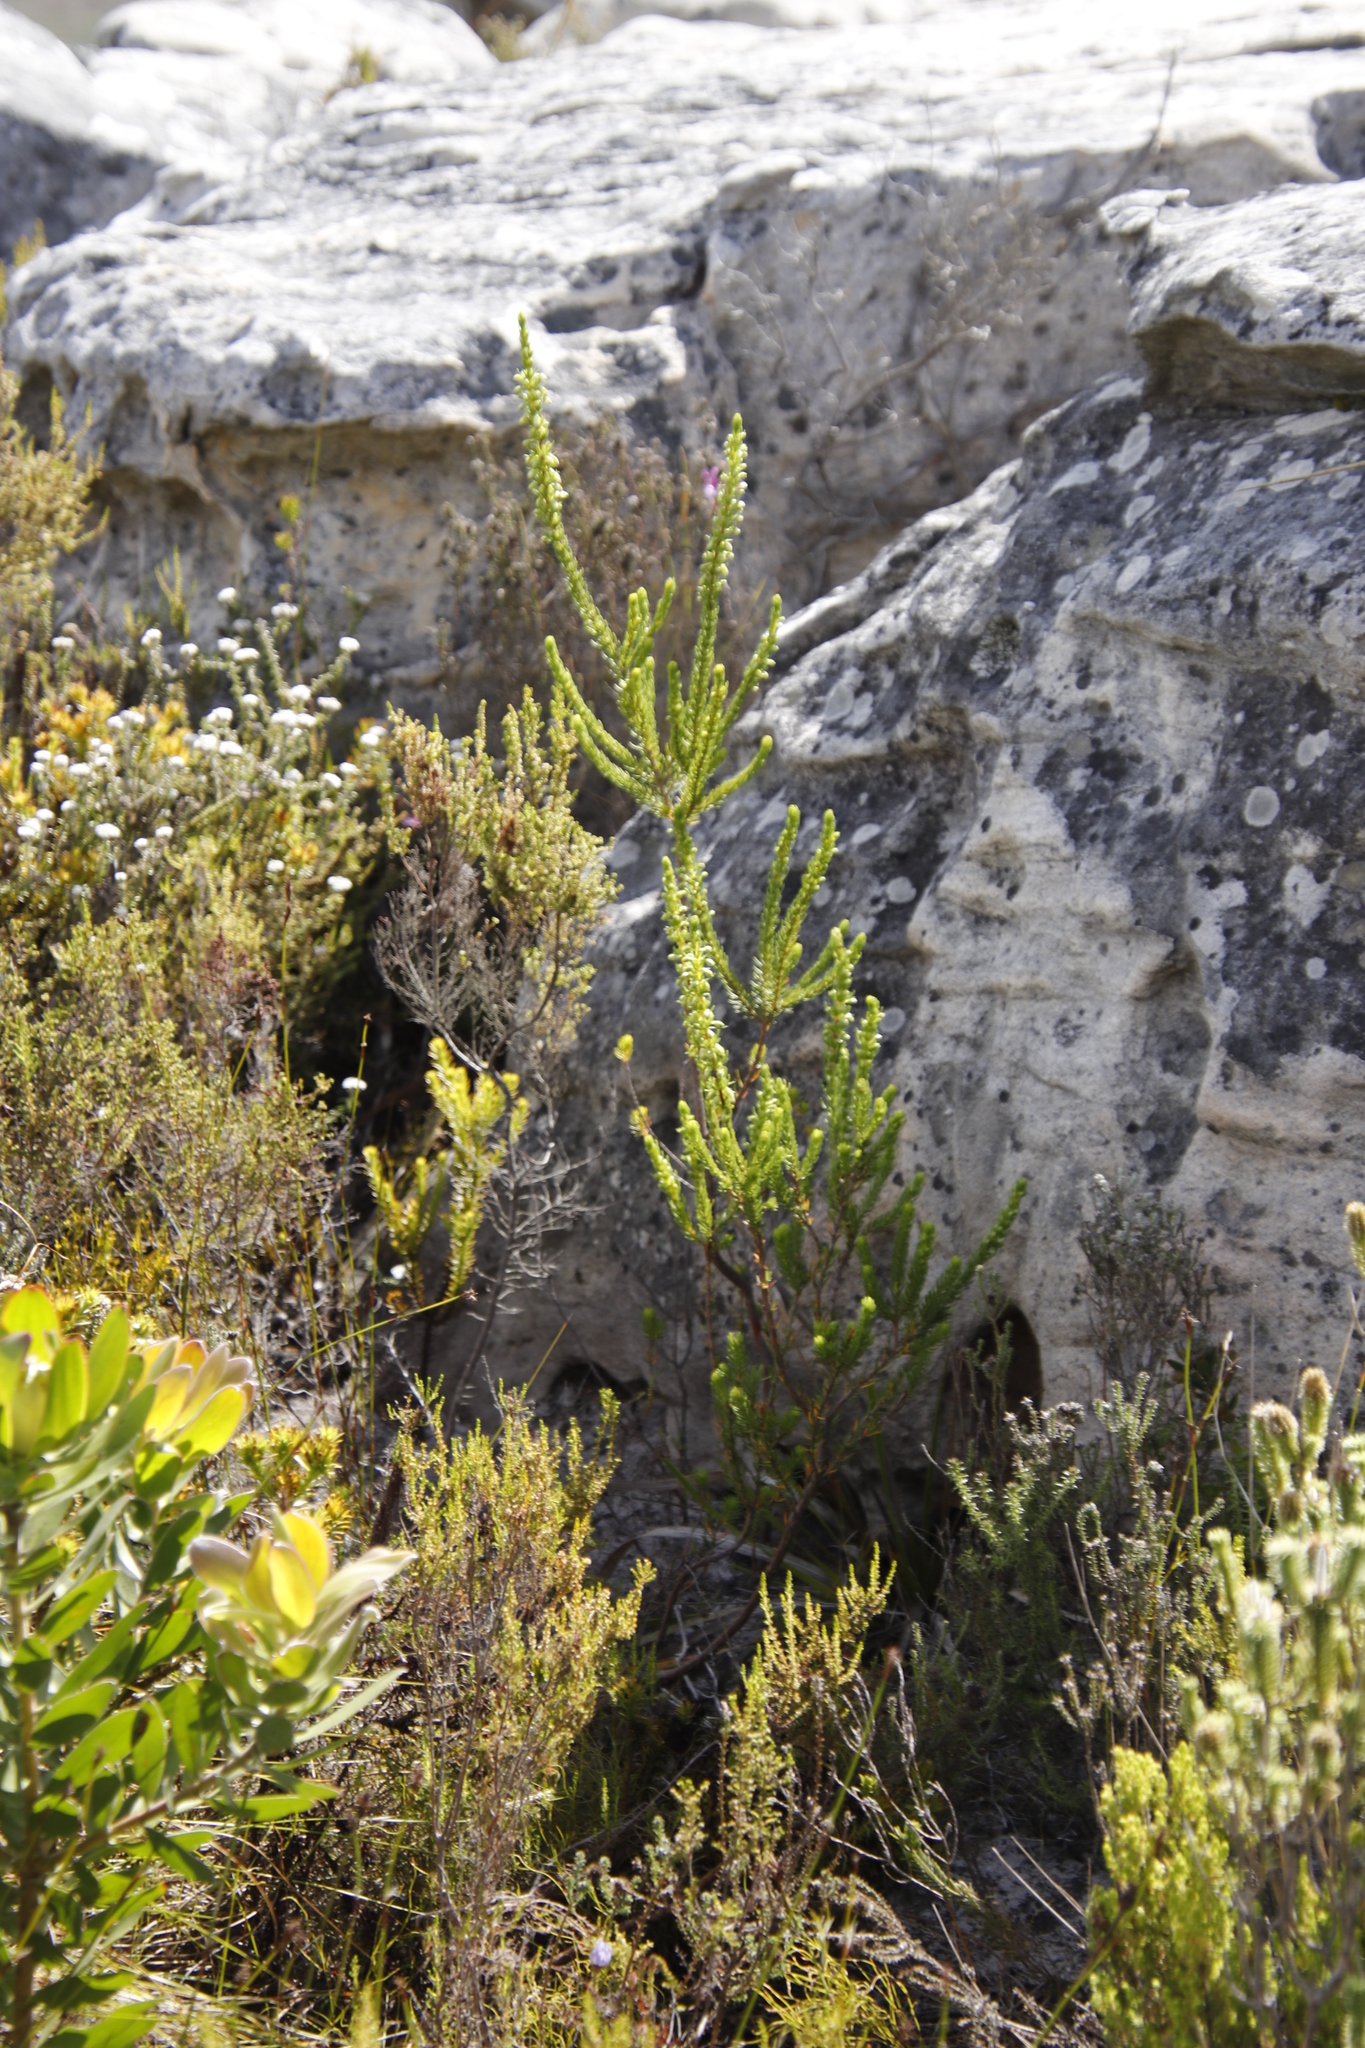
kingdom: Plantae
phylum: Tracheophyta
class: Magnoliopsida
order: Ericales
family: Ericaceae
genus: Erica
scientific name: Erica mammosa
